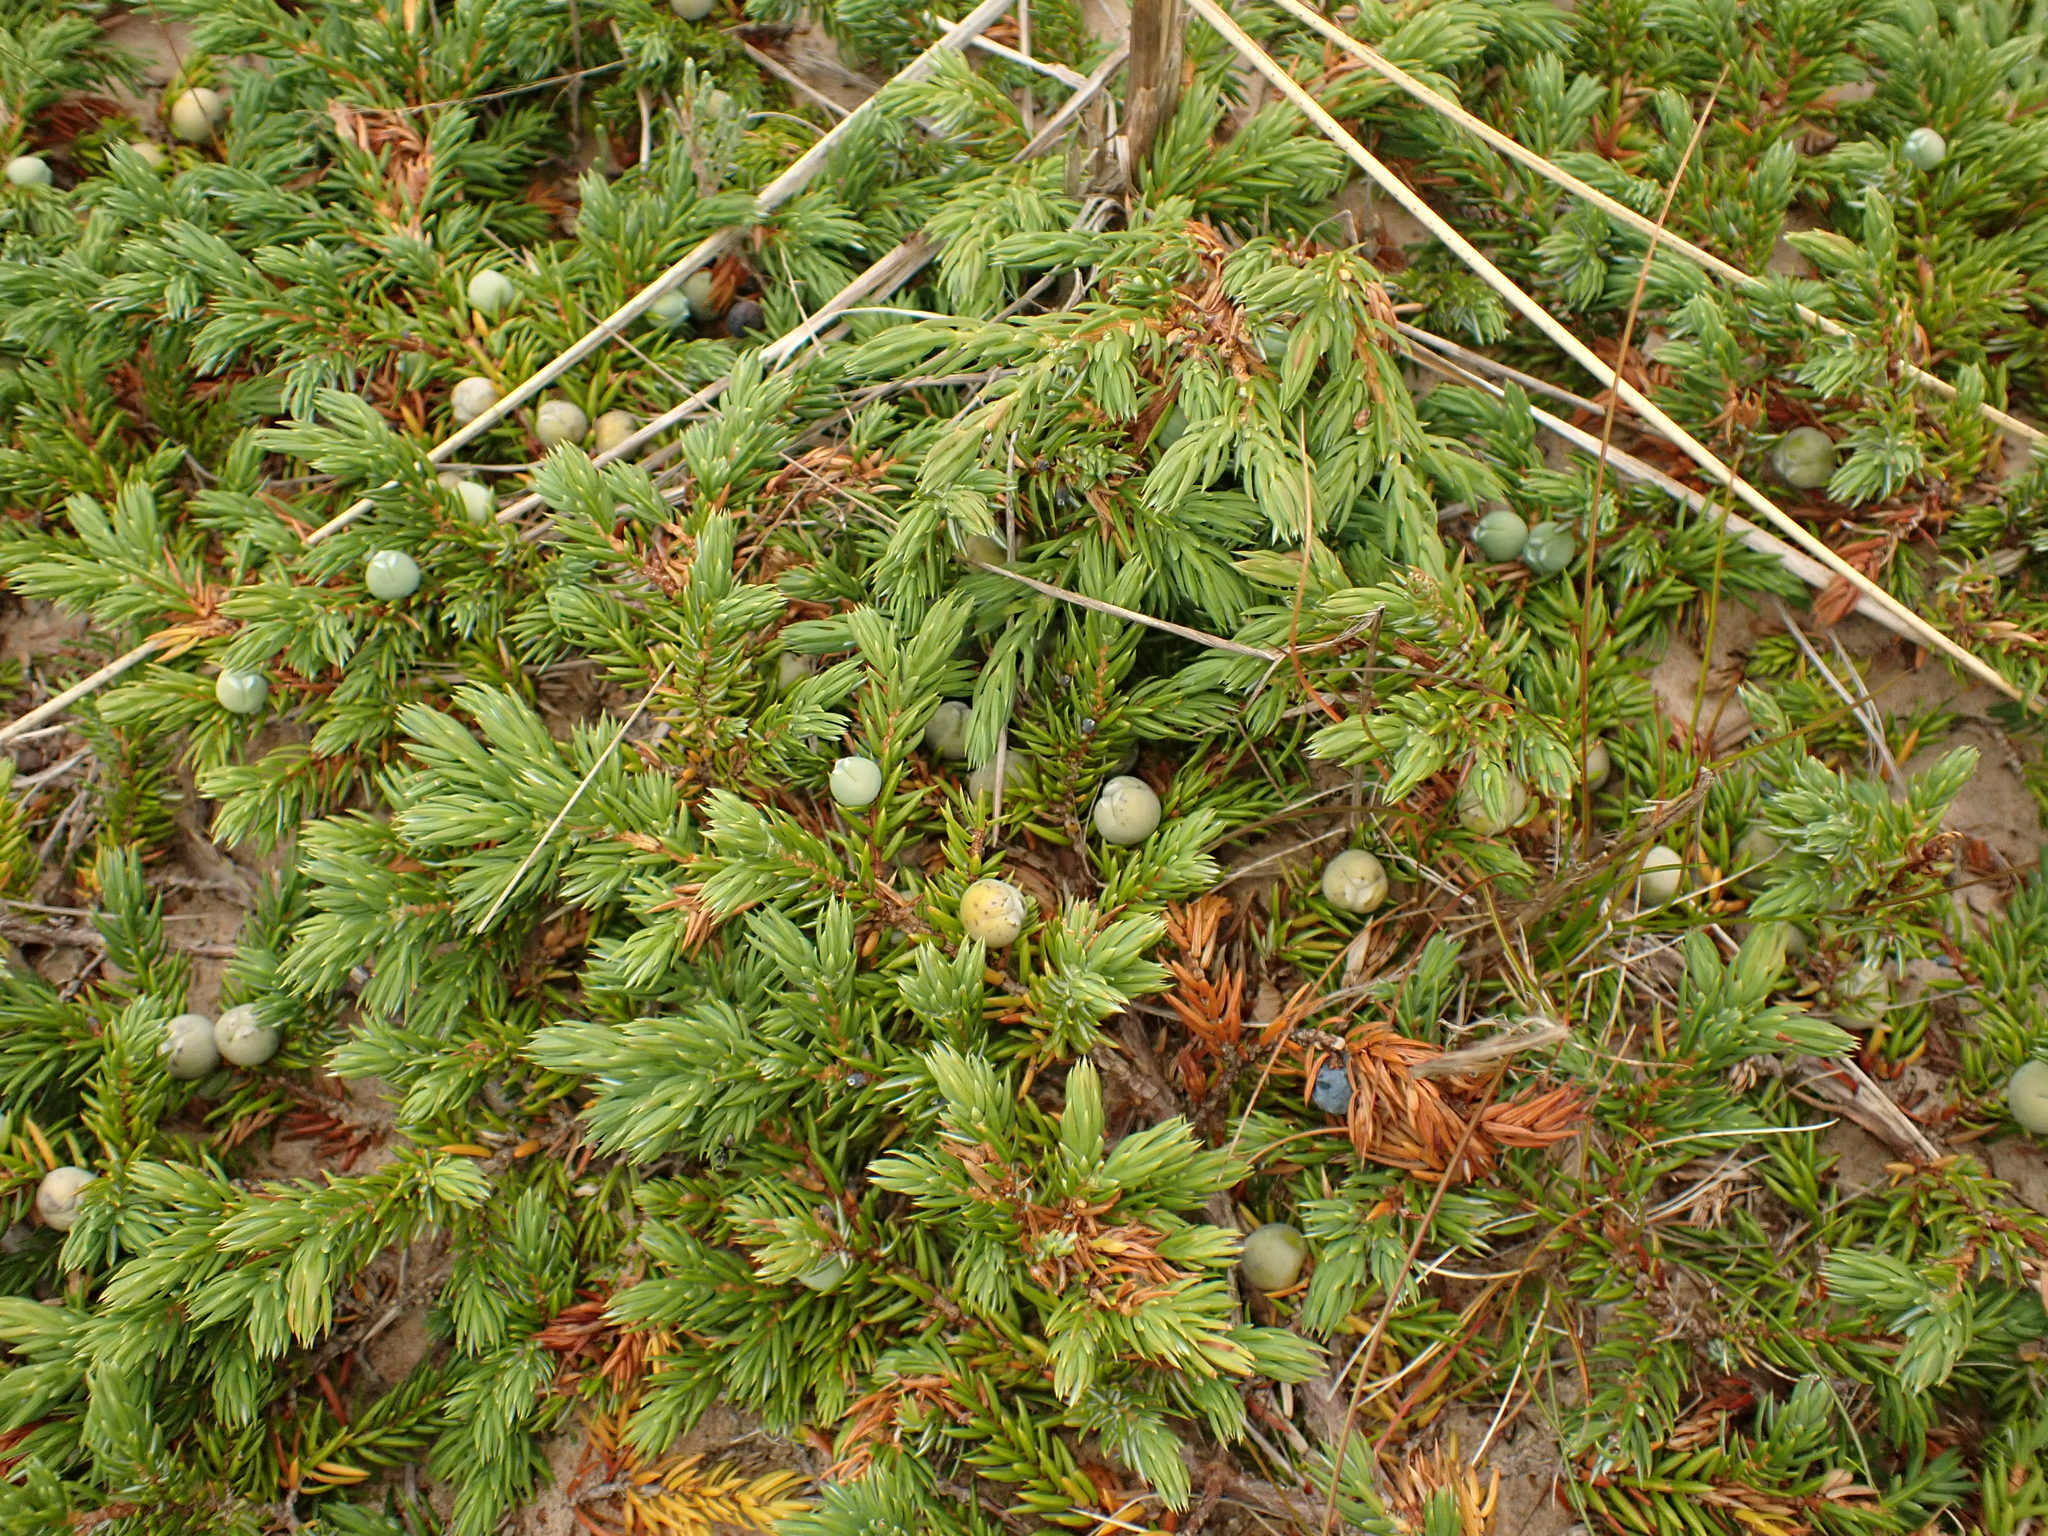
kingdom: Plantae
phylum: Tracheophyta
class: Pinopsida
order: Pinales
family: Cupressaceae
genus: Juniperus
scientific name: Juniperus communis
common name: Common juniper
